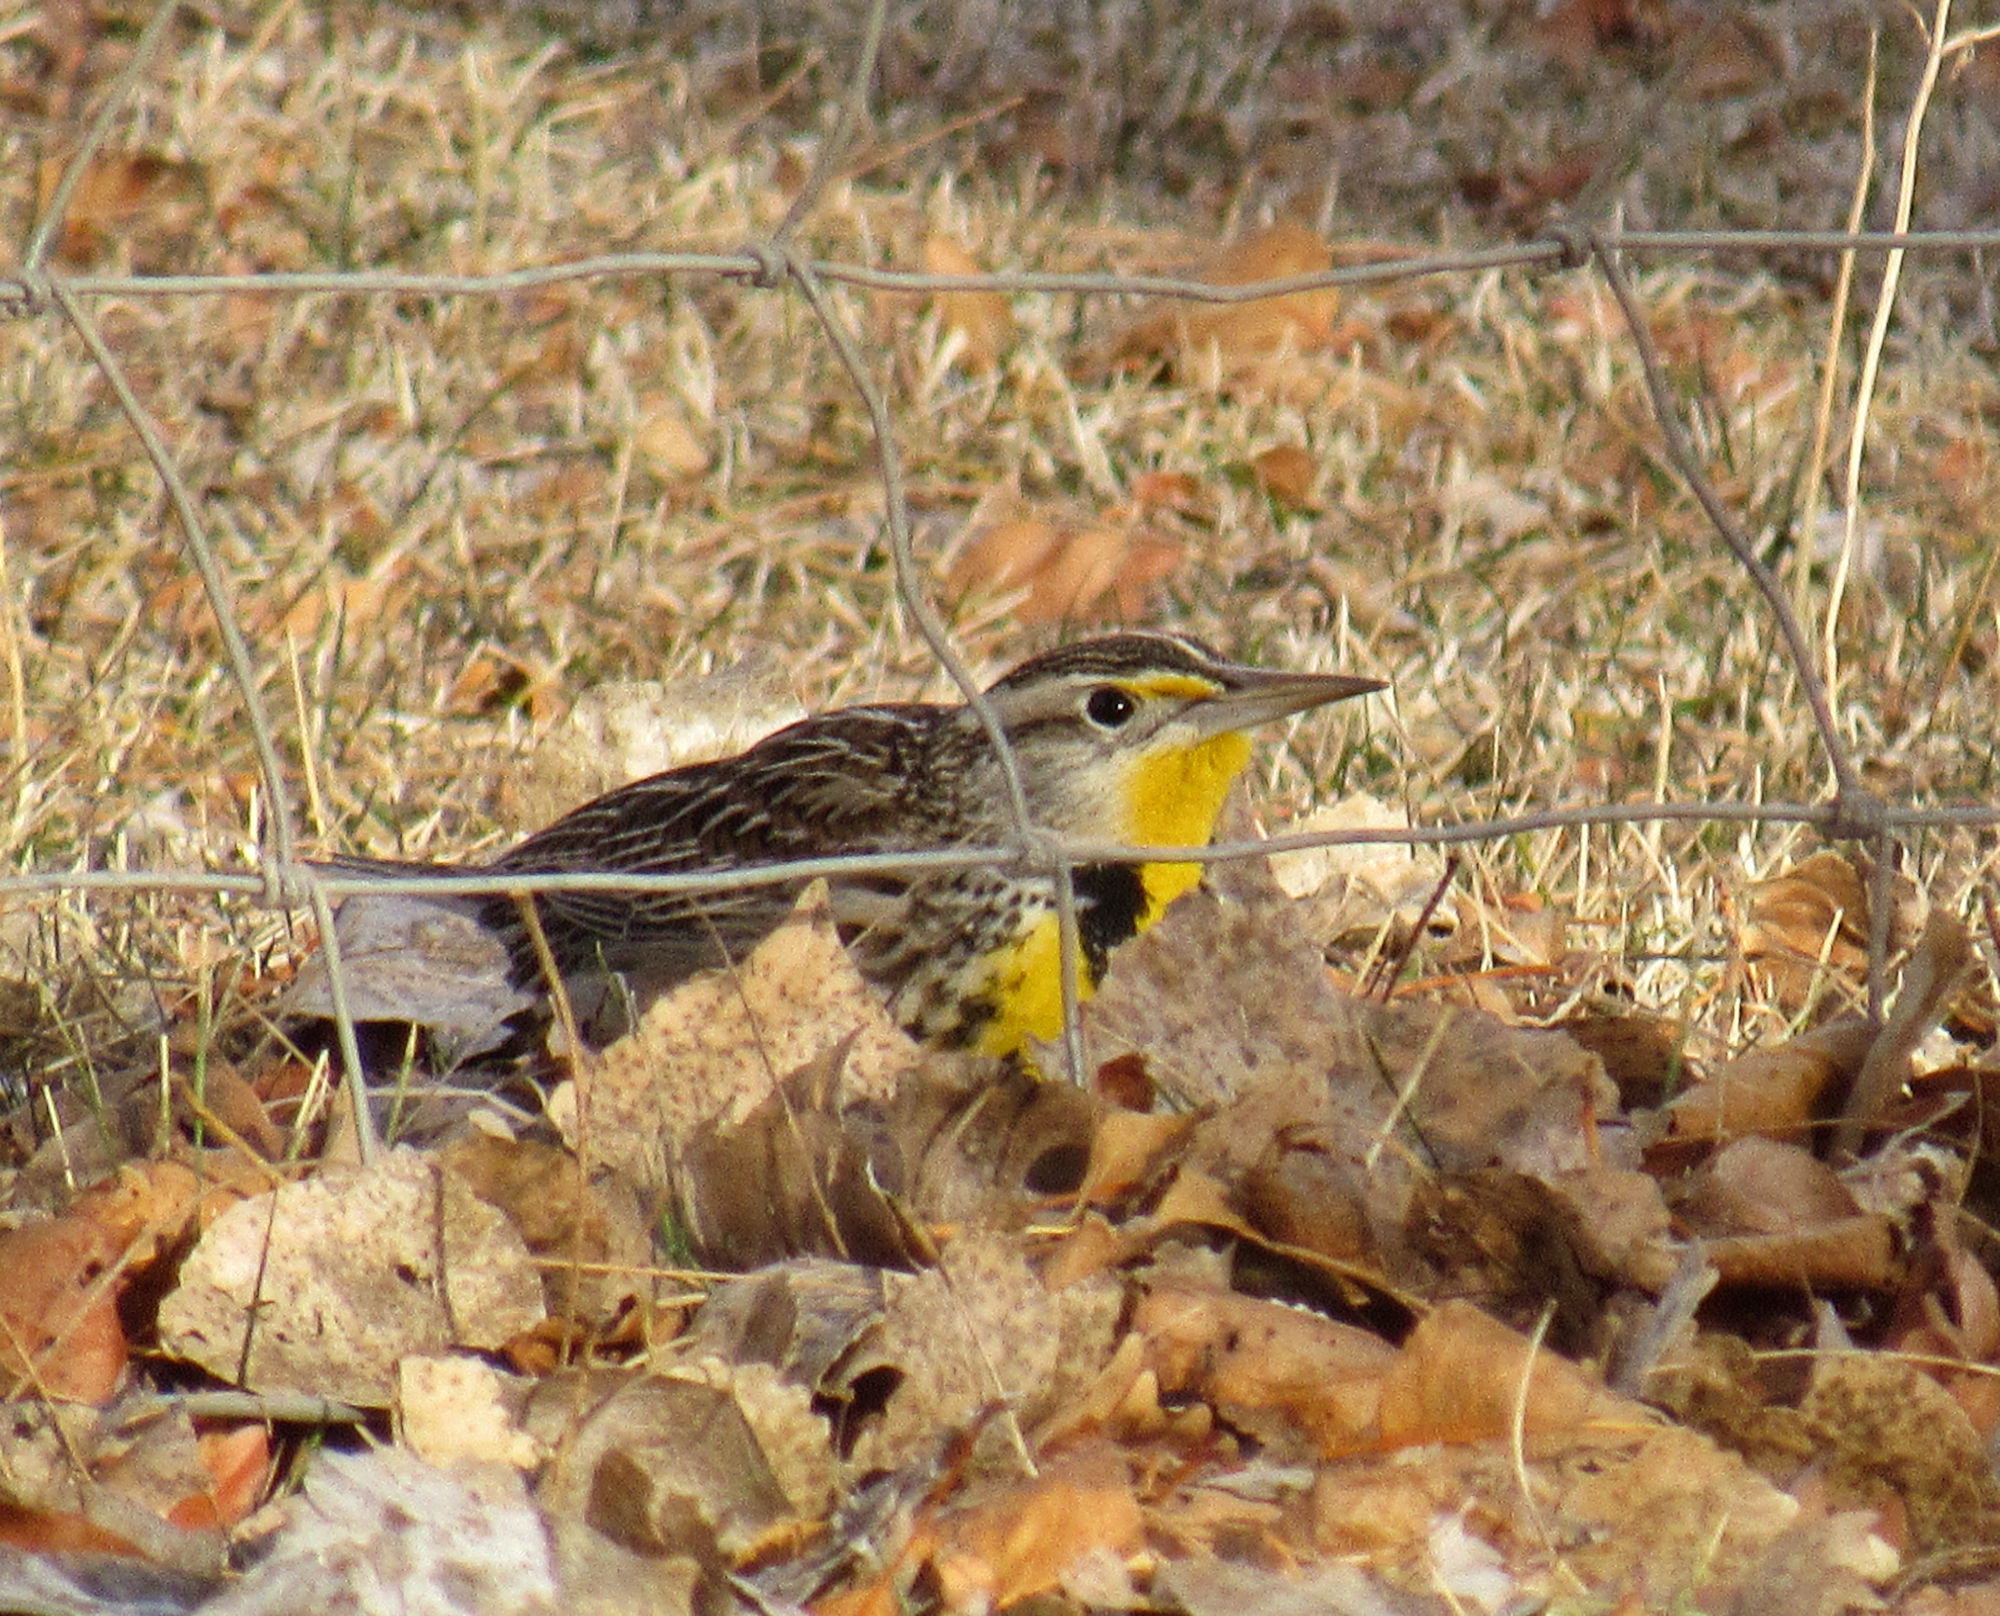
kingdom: Animalia
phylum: Chordata
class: Aves
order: Passeriformes
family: Icteridae
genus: Sturnella
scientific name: Sturnella neglecta
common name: Western meadowlark
